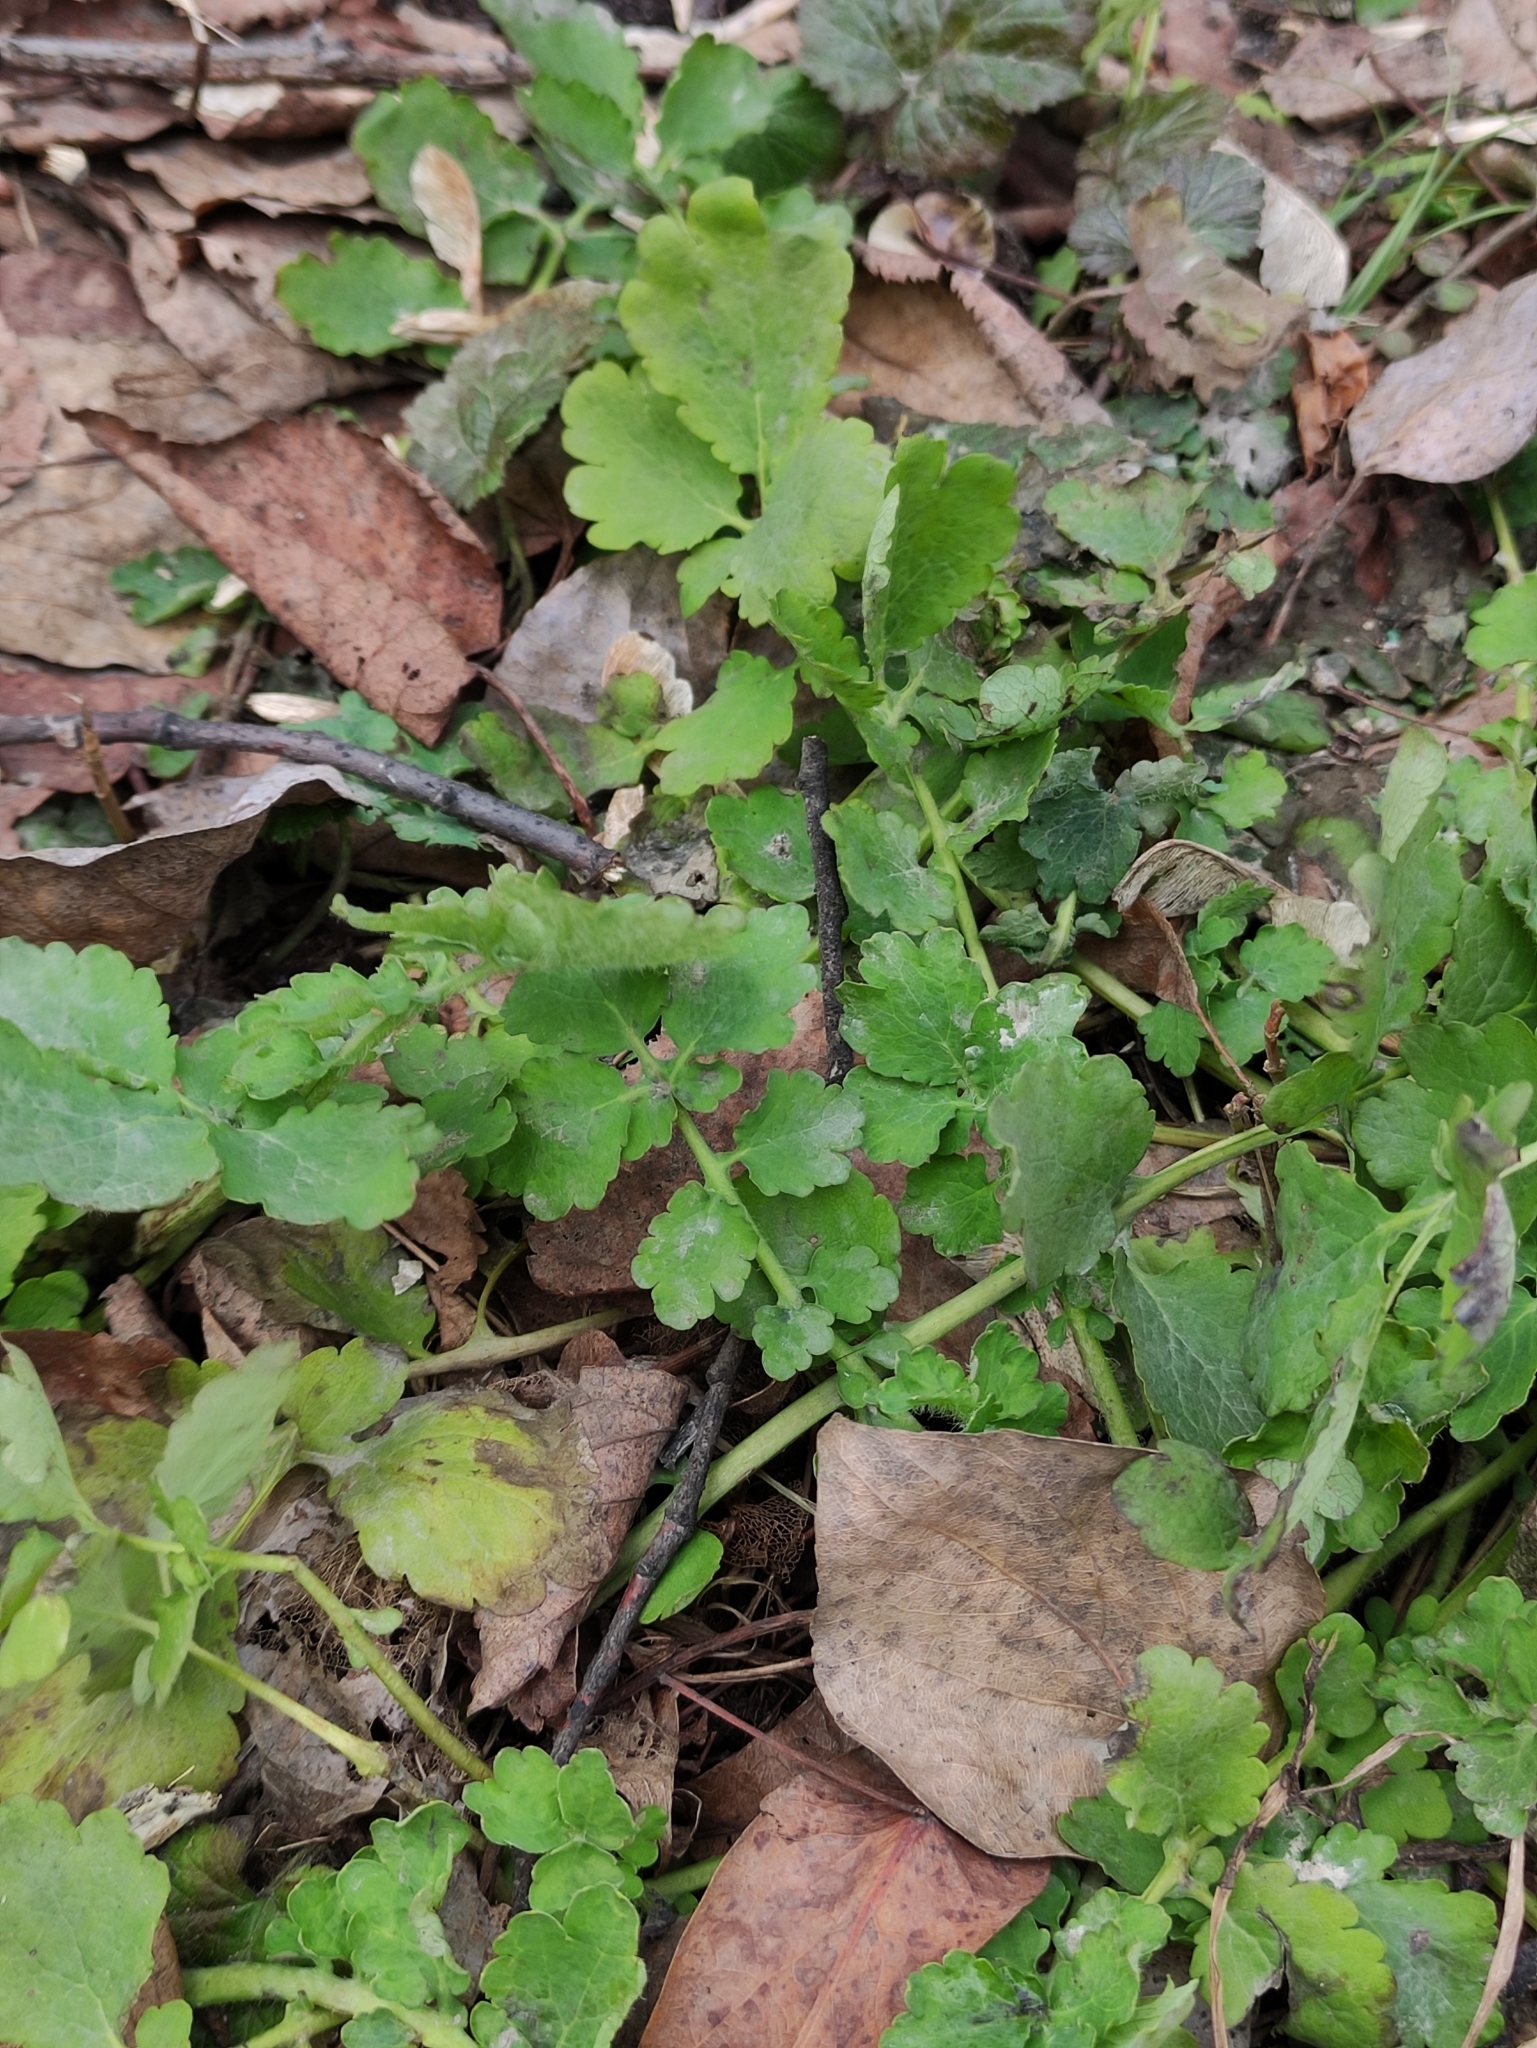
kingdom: Plantae
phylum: Tracheophyta
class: Magnoliopsida
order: Ranunculales
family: Papaveraceae
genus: Chelidonium
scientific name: Chelidonium majus
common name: Greater celandine
